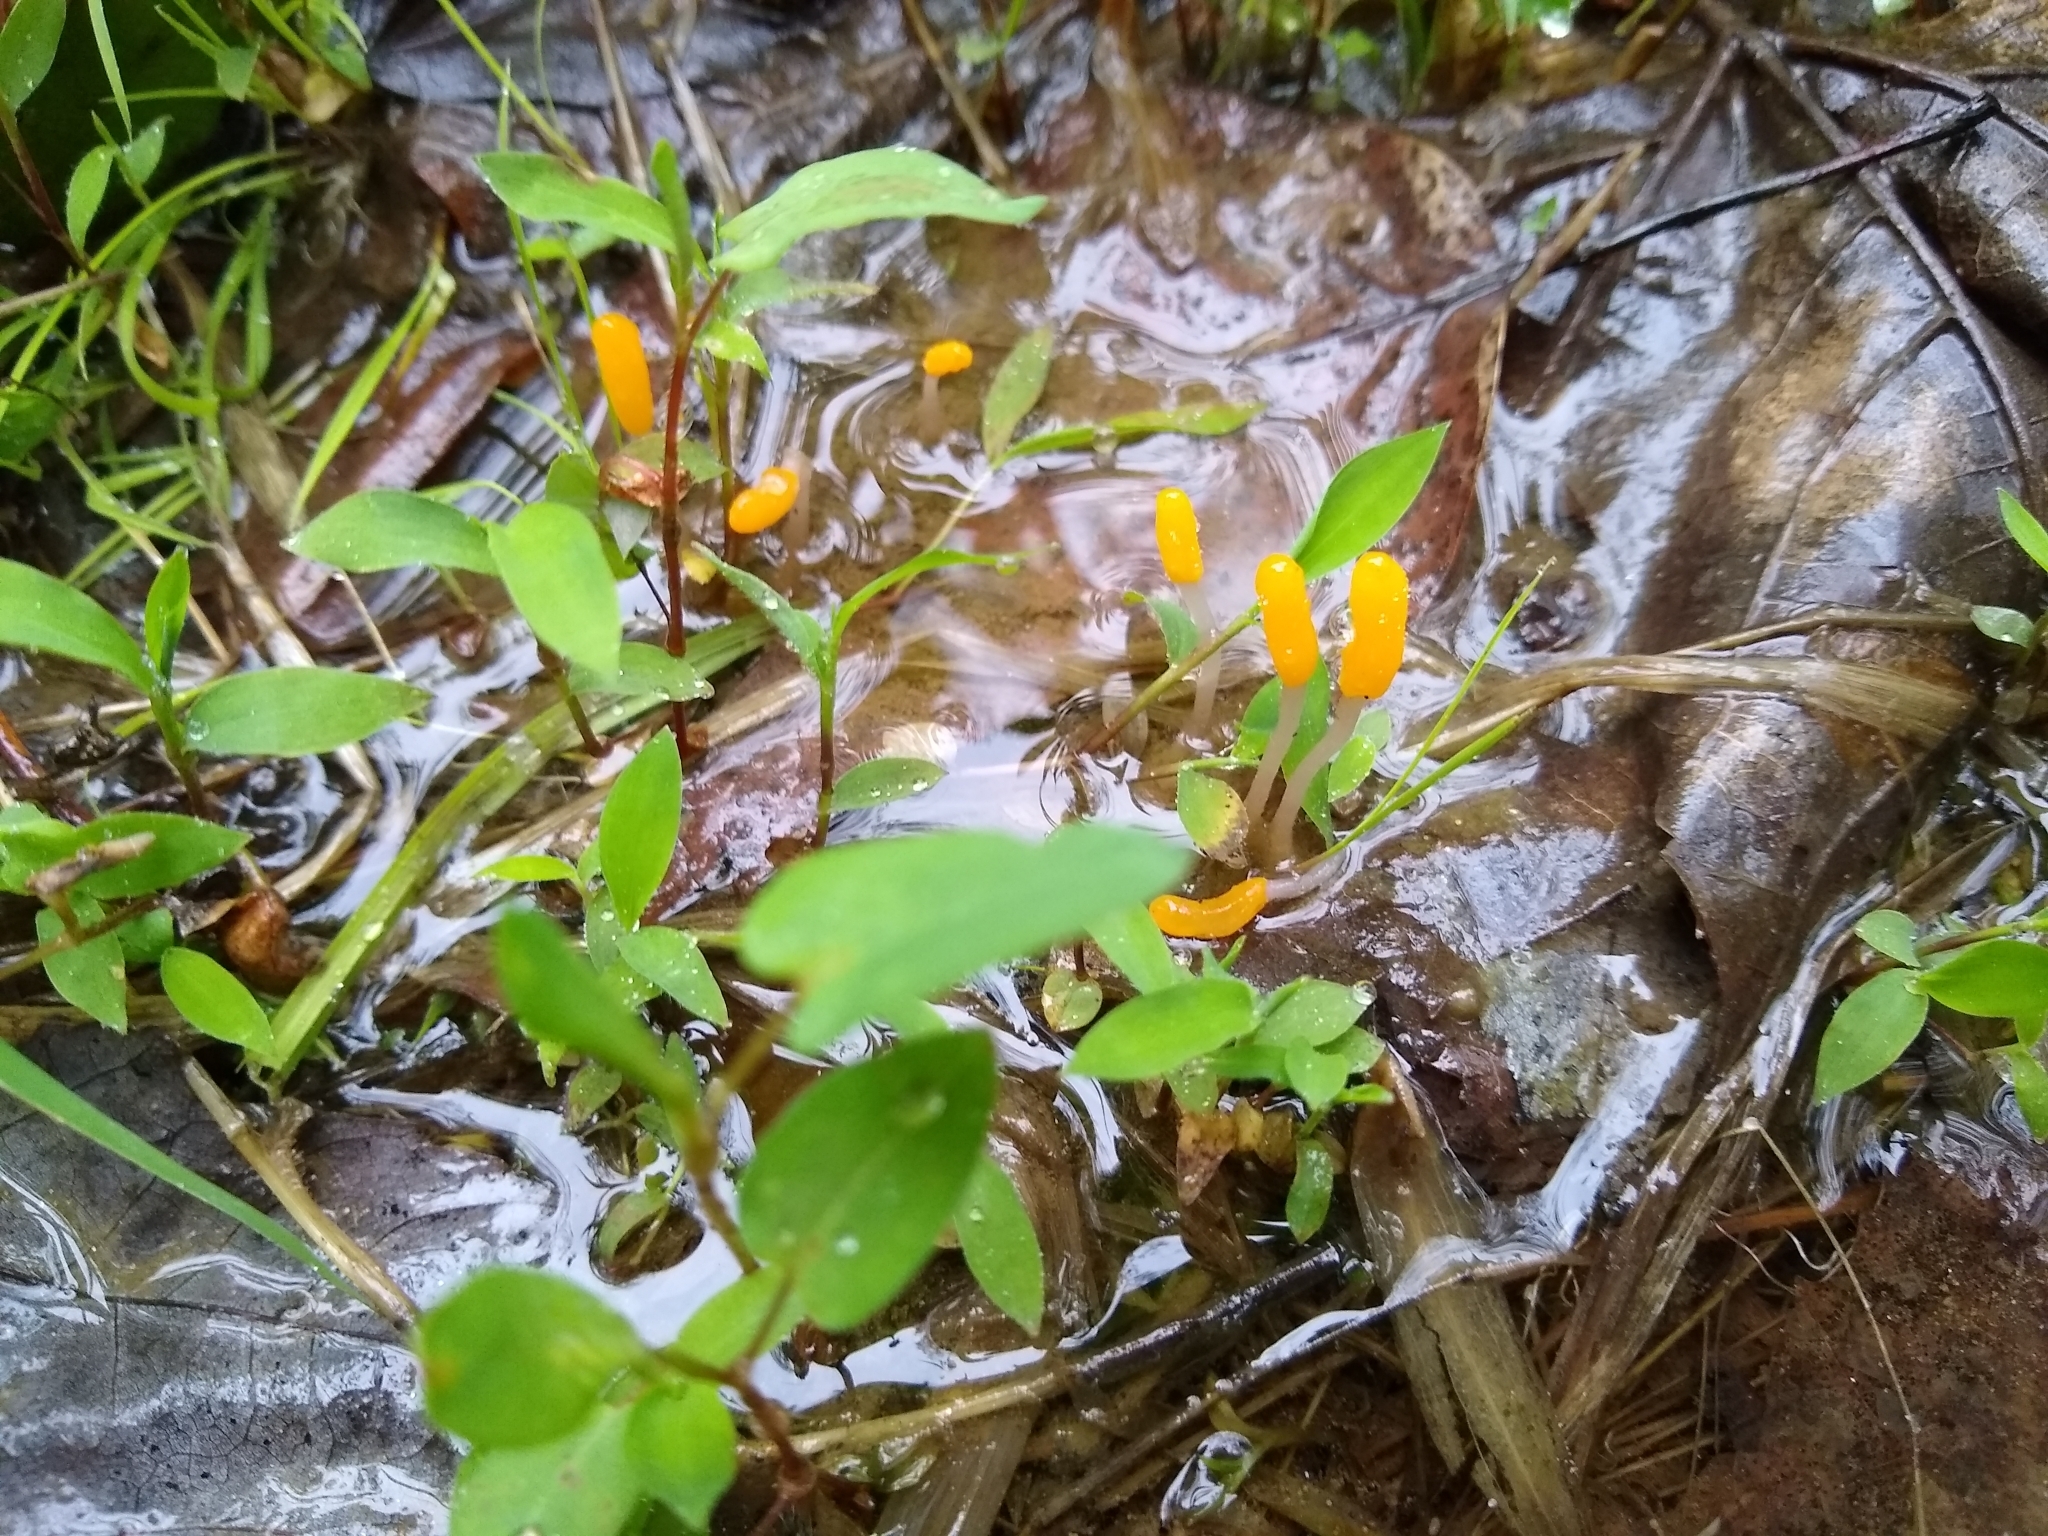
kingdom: Fungi
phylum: Ascomycota
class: Leotiomycetes
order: Helotiales
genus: Mitrula
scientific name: Mitrula
